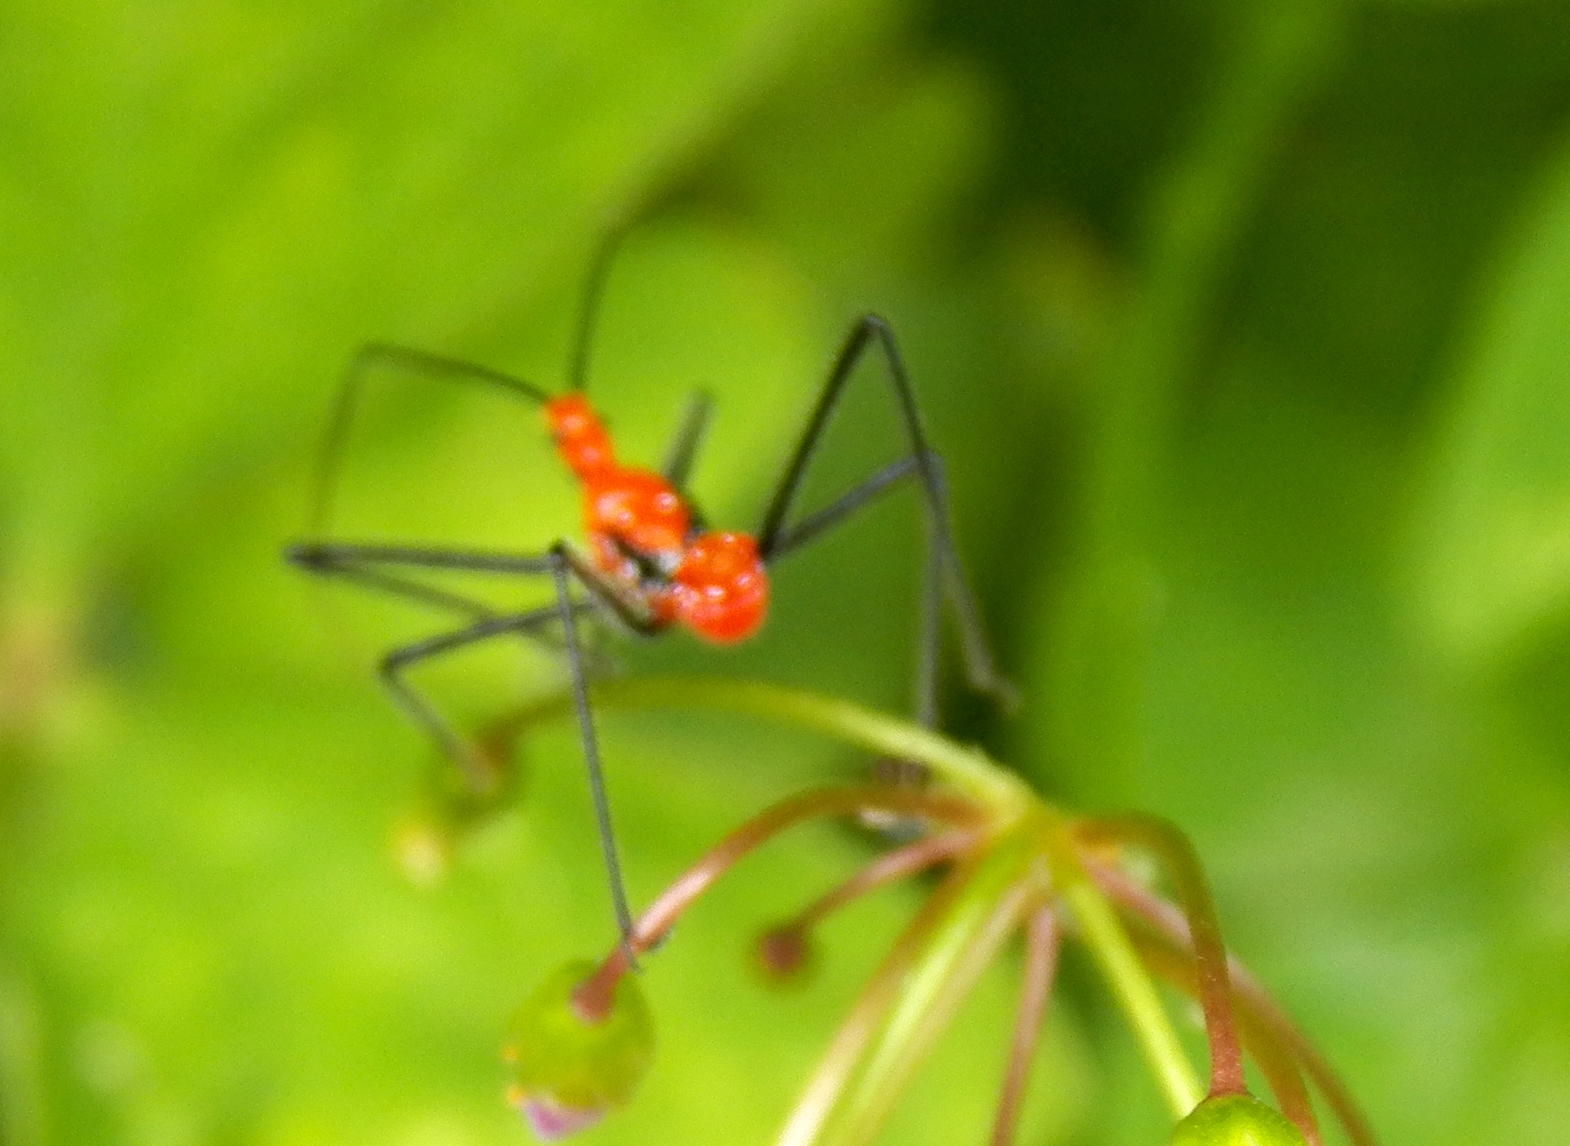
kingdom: Animalia
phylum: Arthropoda
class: Insecta
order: Hemiptera
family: Reduviidae
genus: Zelus
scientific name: Zelus longipes
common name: Milkweed assassin bug
